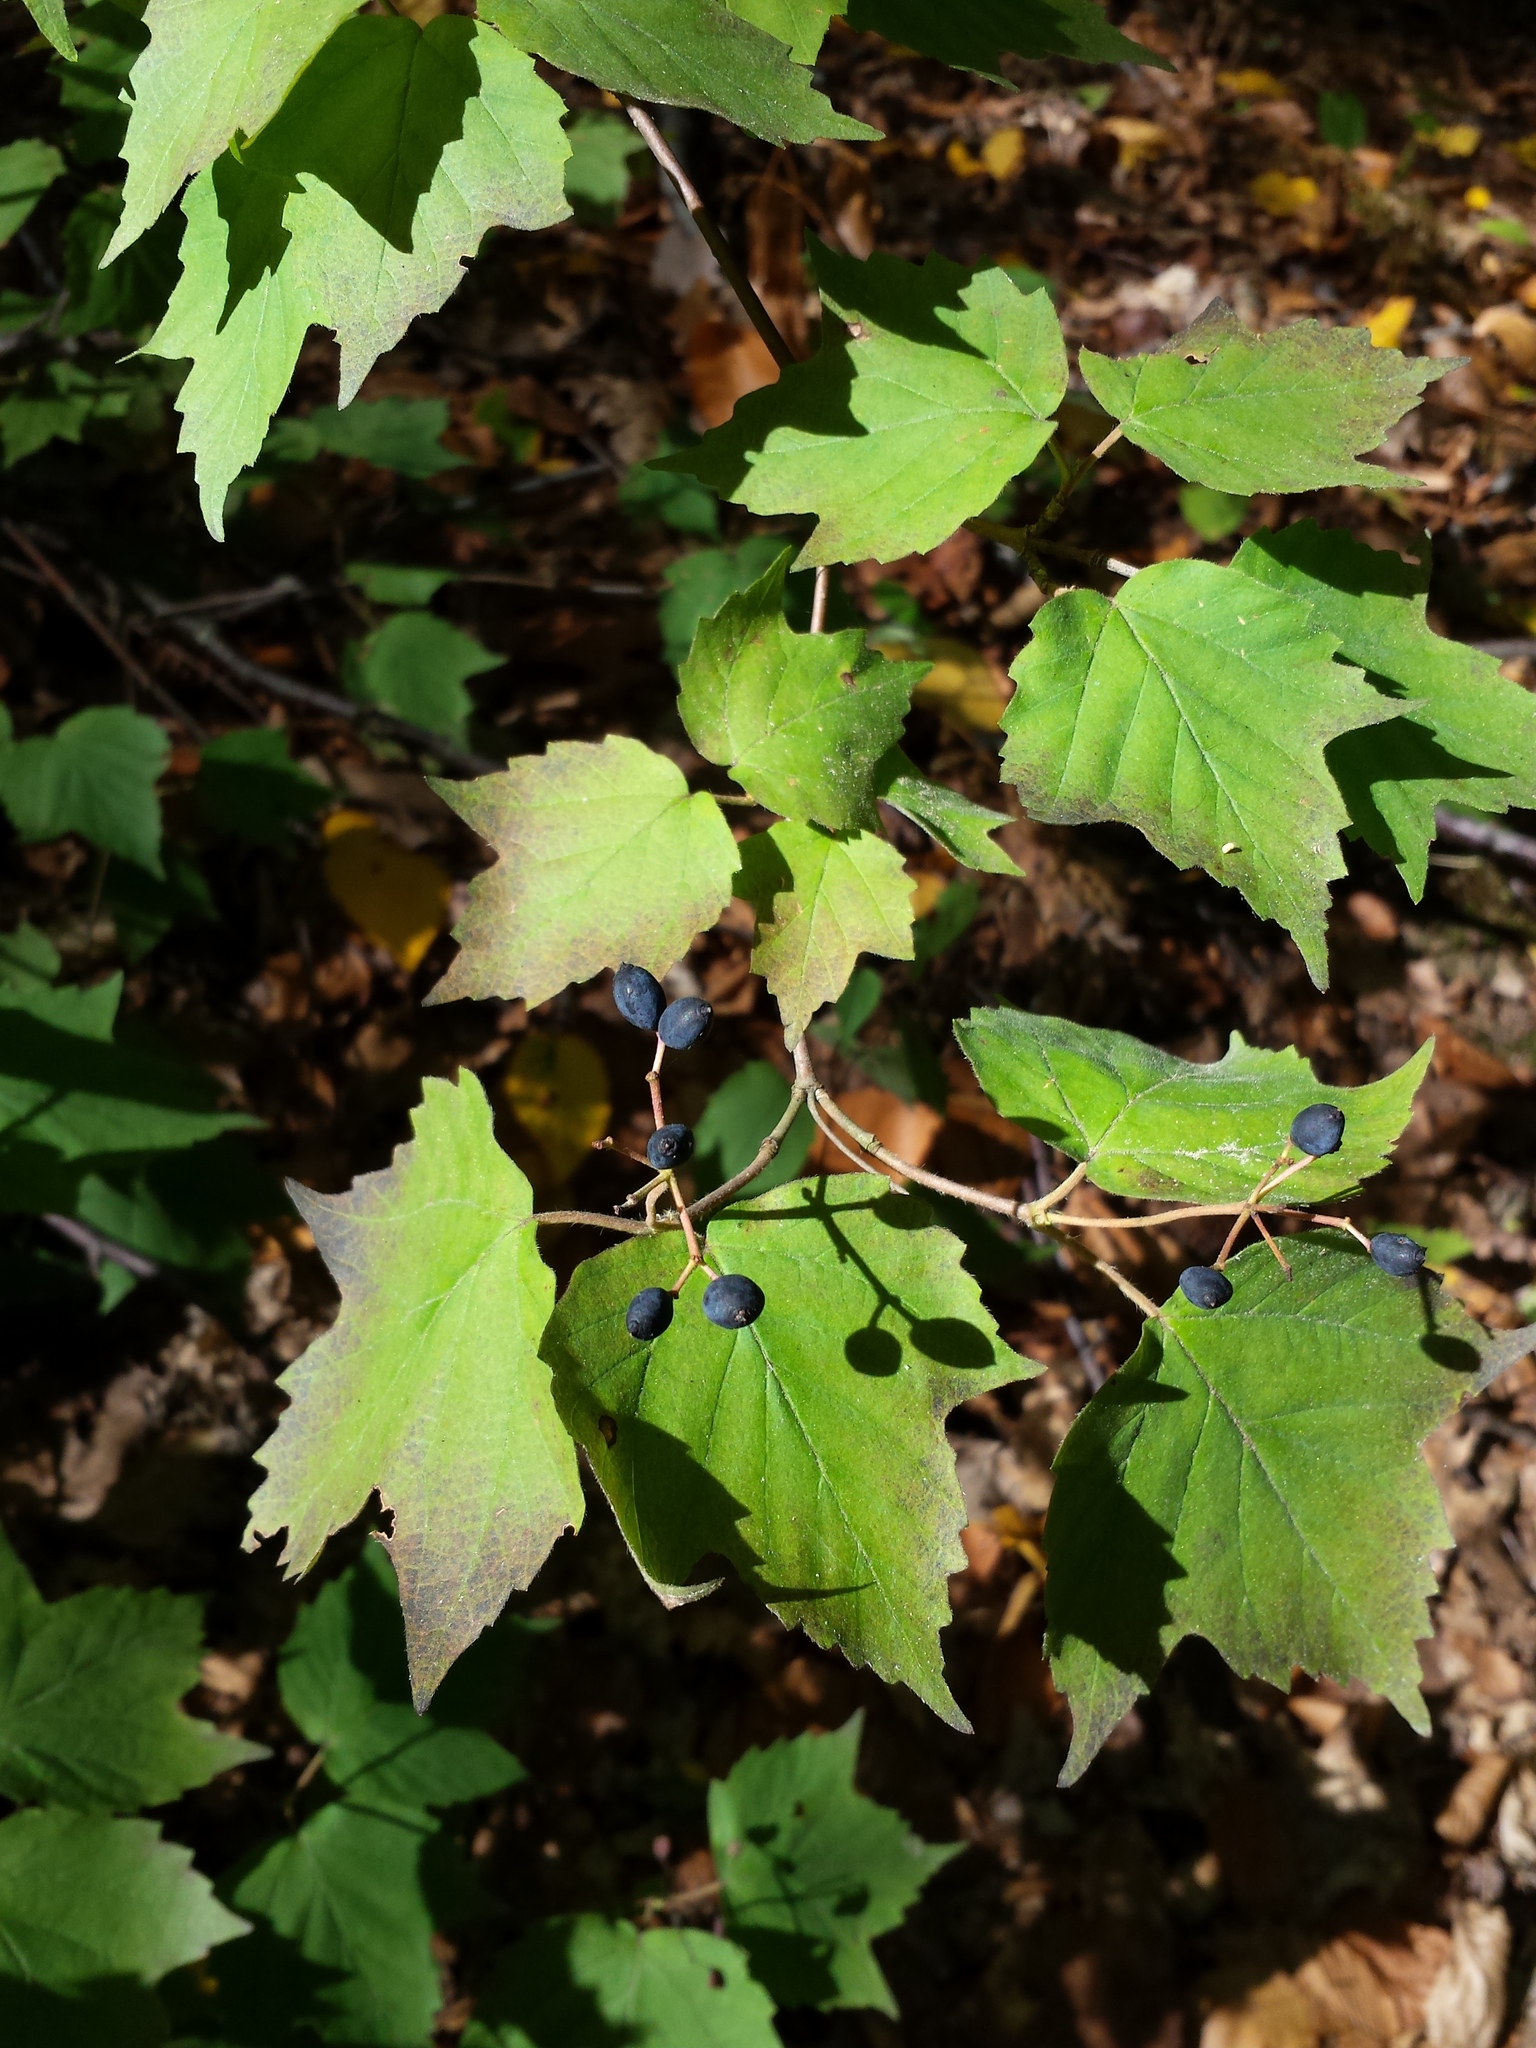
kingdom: Plantae
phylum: Tracheophyta
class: Magnoliopsida
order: Dipsacales
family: Viburnaceae
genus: Viburnum
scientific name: Viburnum acerifolium
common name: Dockmackie
